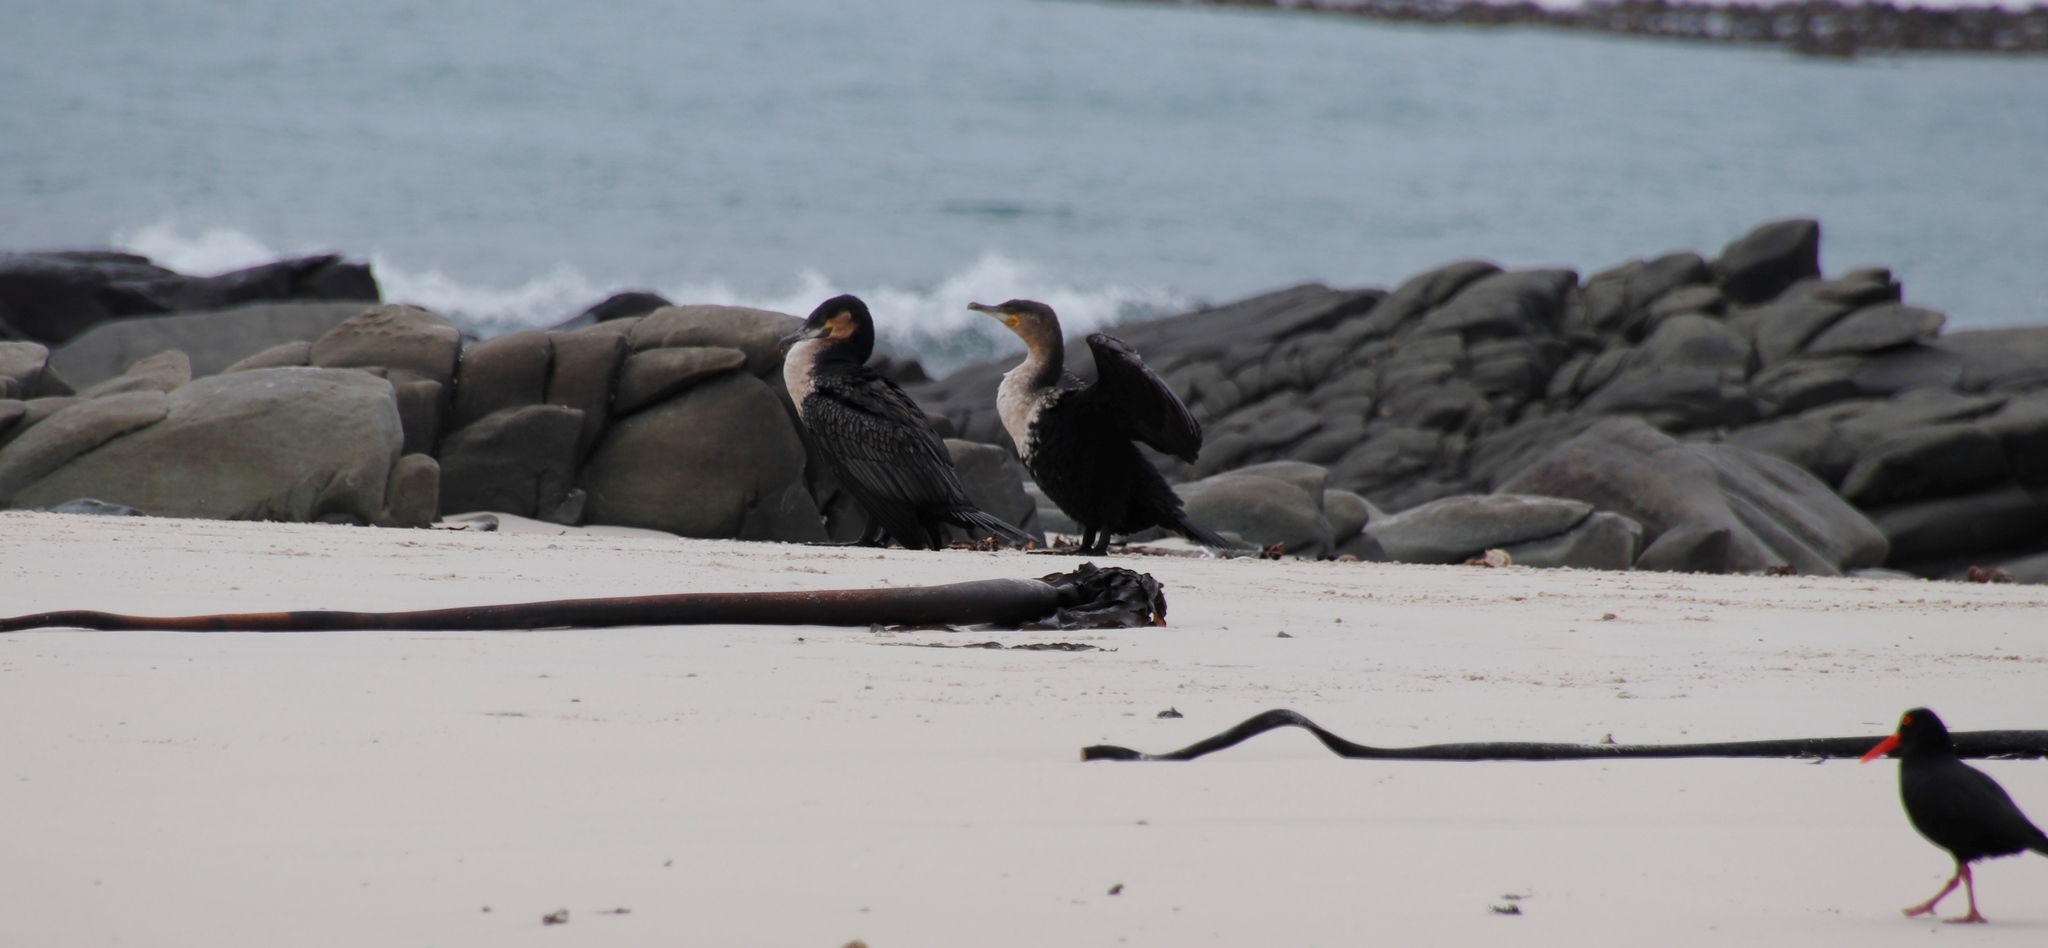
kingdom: Animalia
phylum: Chordata
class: Aves
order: Suliformes
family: Phalacrocoracidae
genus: Phalacrocorax
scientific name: Phalacrocorax carbo
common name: Great cormorant
